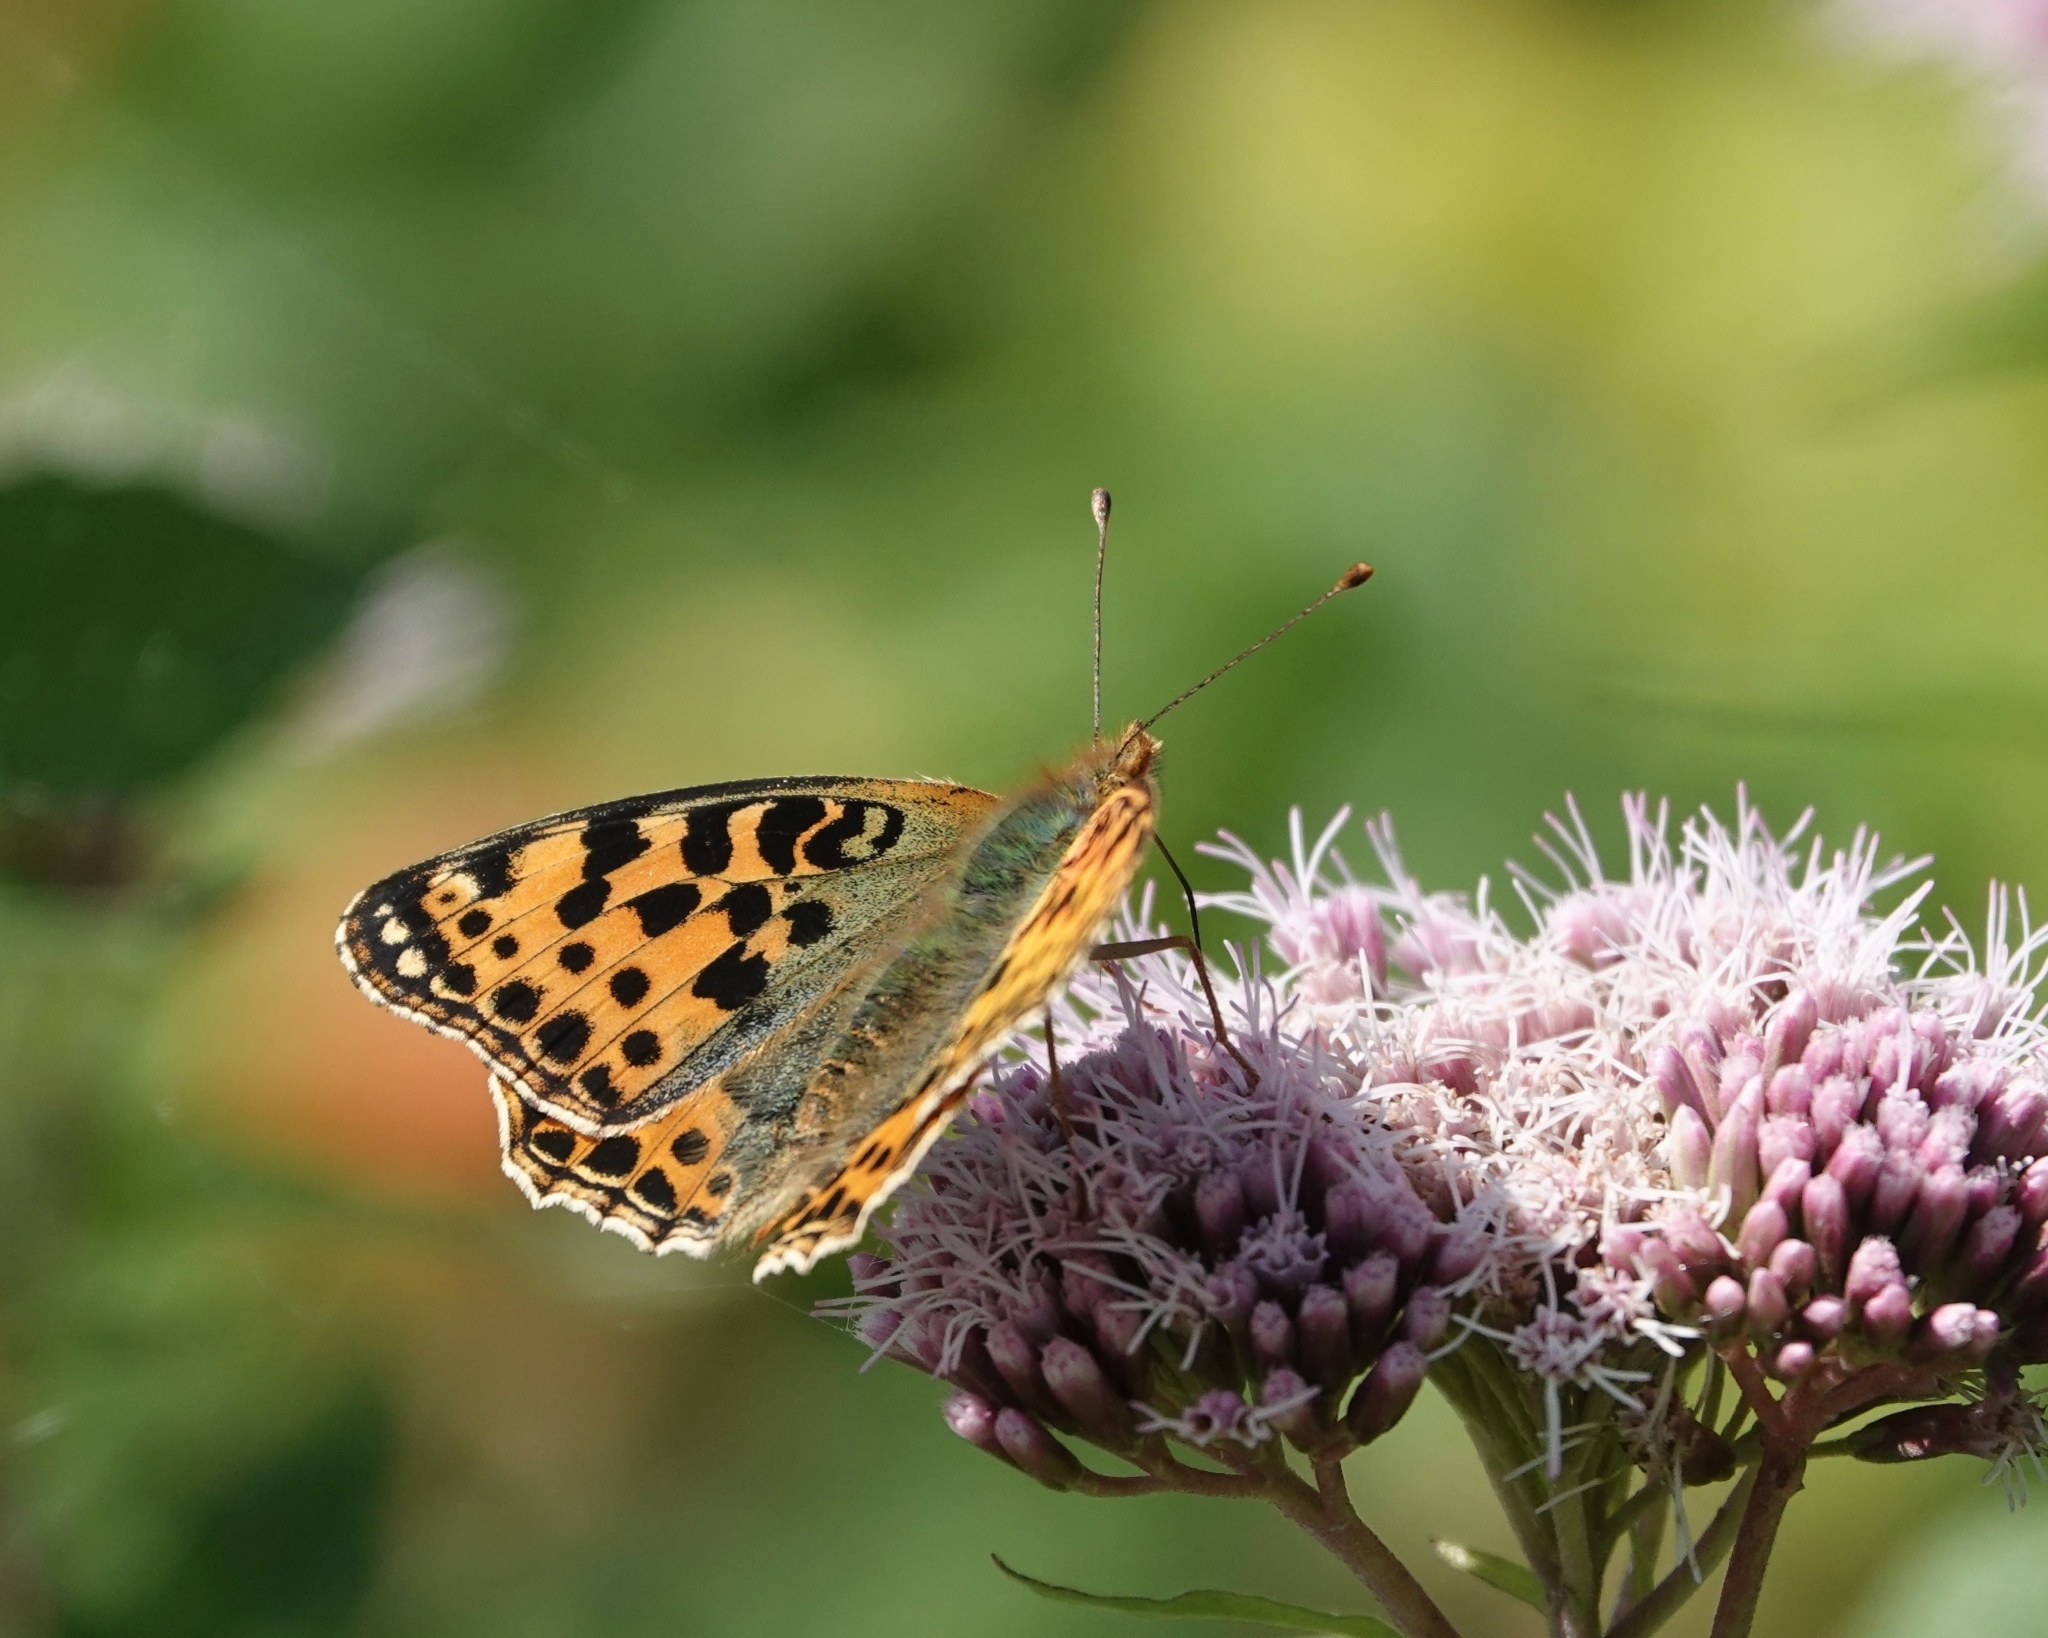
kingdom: Animalia
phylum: Arthropoda
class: Insecta
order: Lepidoptera
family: Nymphalidae
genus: Issoria
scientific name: Issoria lathonia
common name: Queen of spain fritillary
